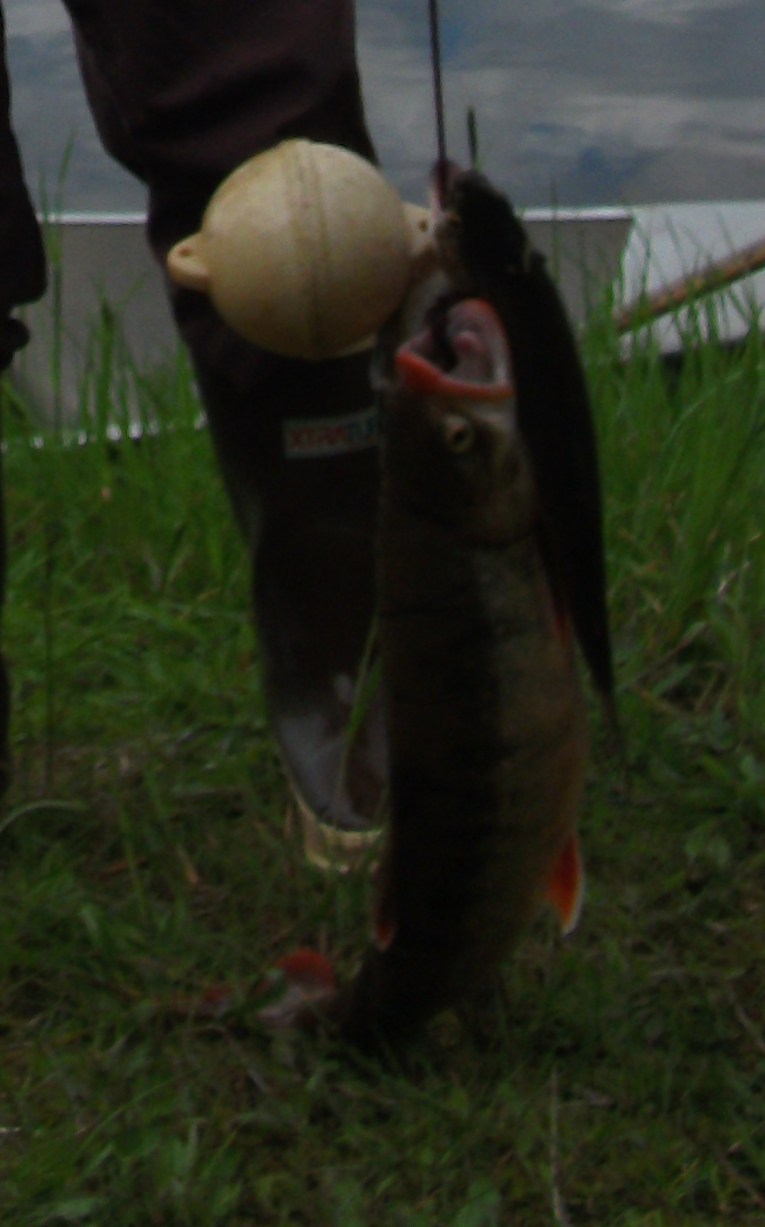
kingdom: Animalia
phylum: Chordata
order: Salmoniformes
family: Salmonidae
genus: Salvelinus
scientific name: Salvelinus alpinus
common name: Charr
